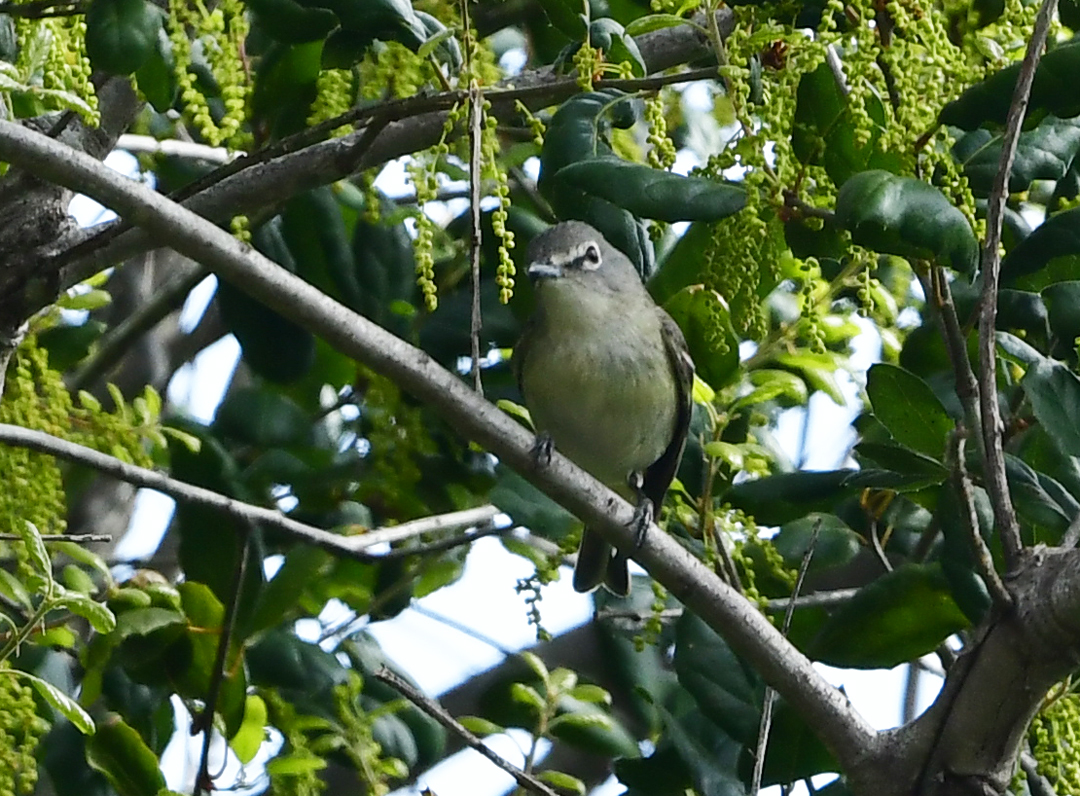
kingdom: Animalia
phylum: Chordata
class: Aves
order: Passeriformes
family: Vireonidae
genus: Vireo
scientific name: Vireo cassinii
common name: Cassin's vireo
